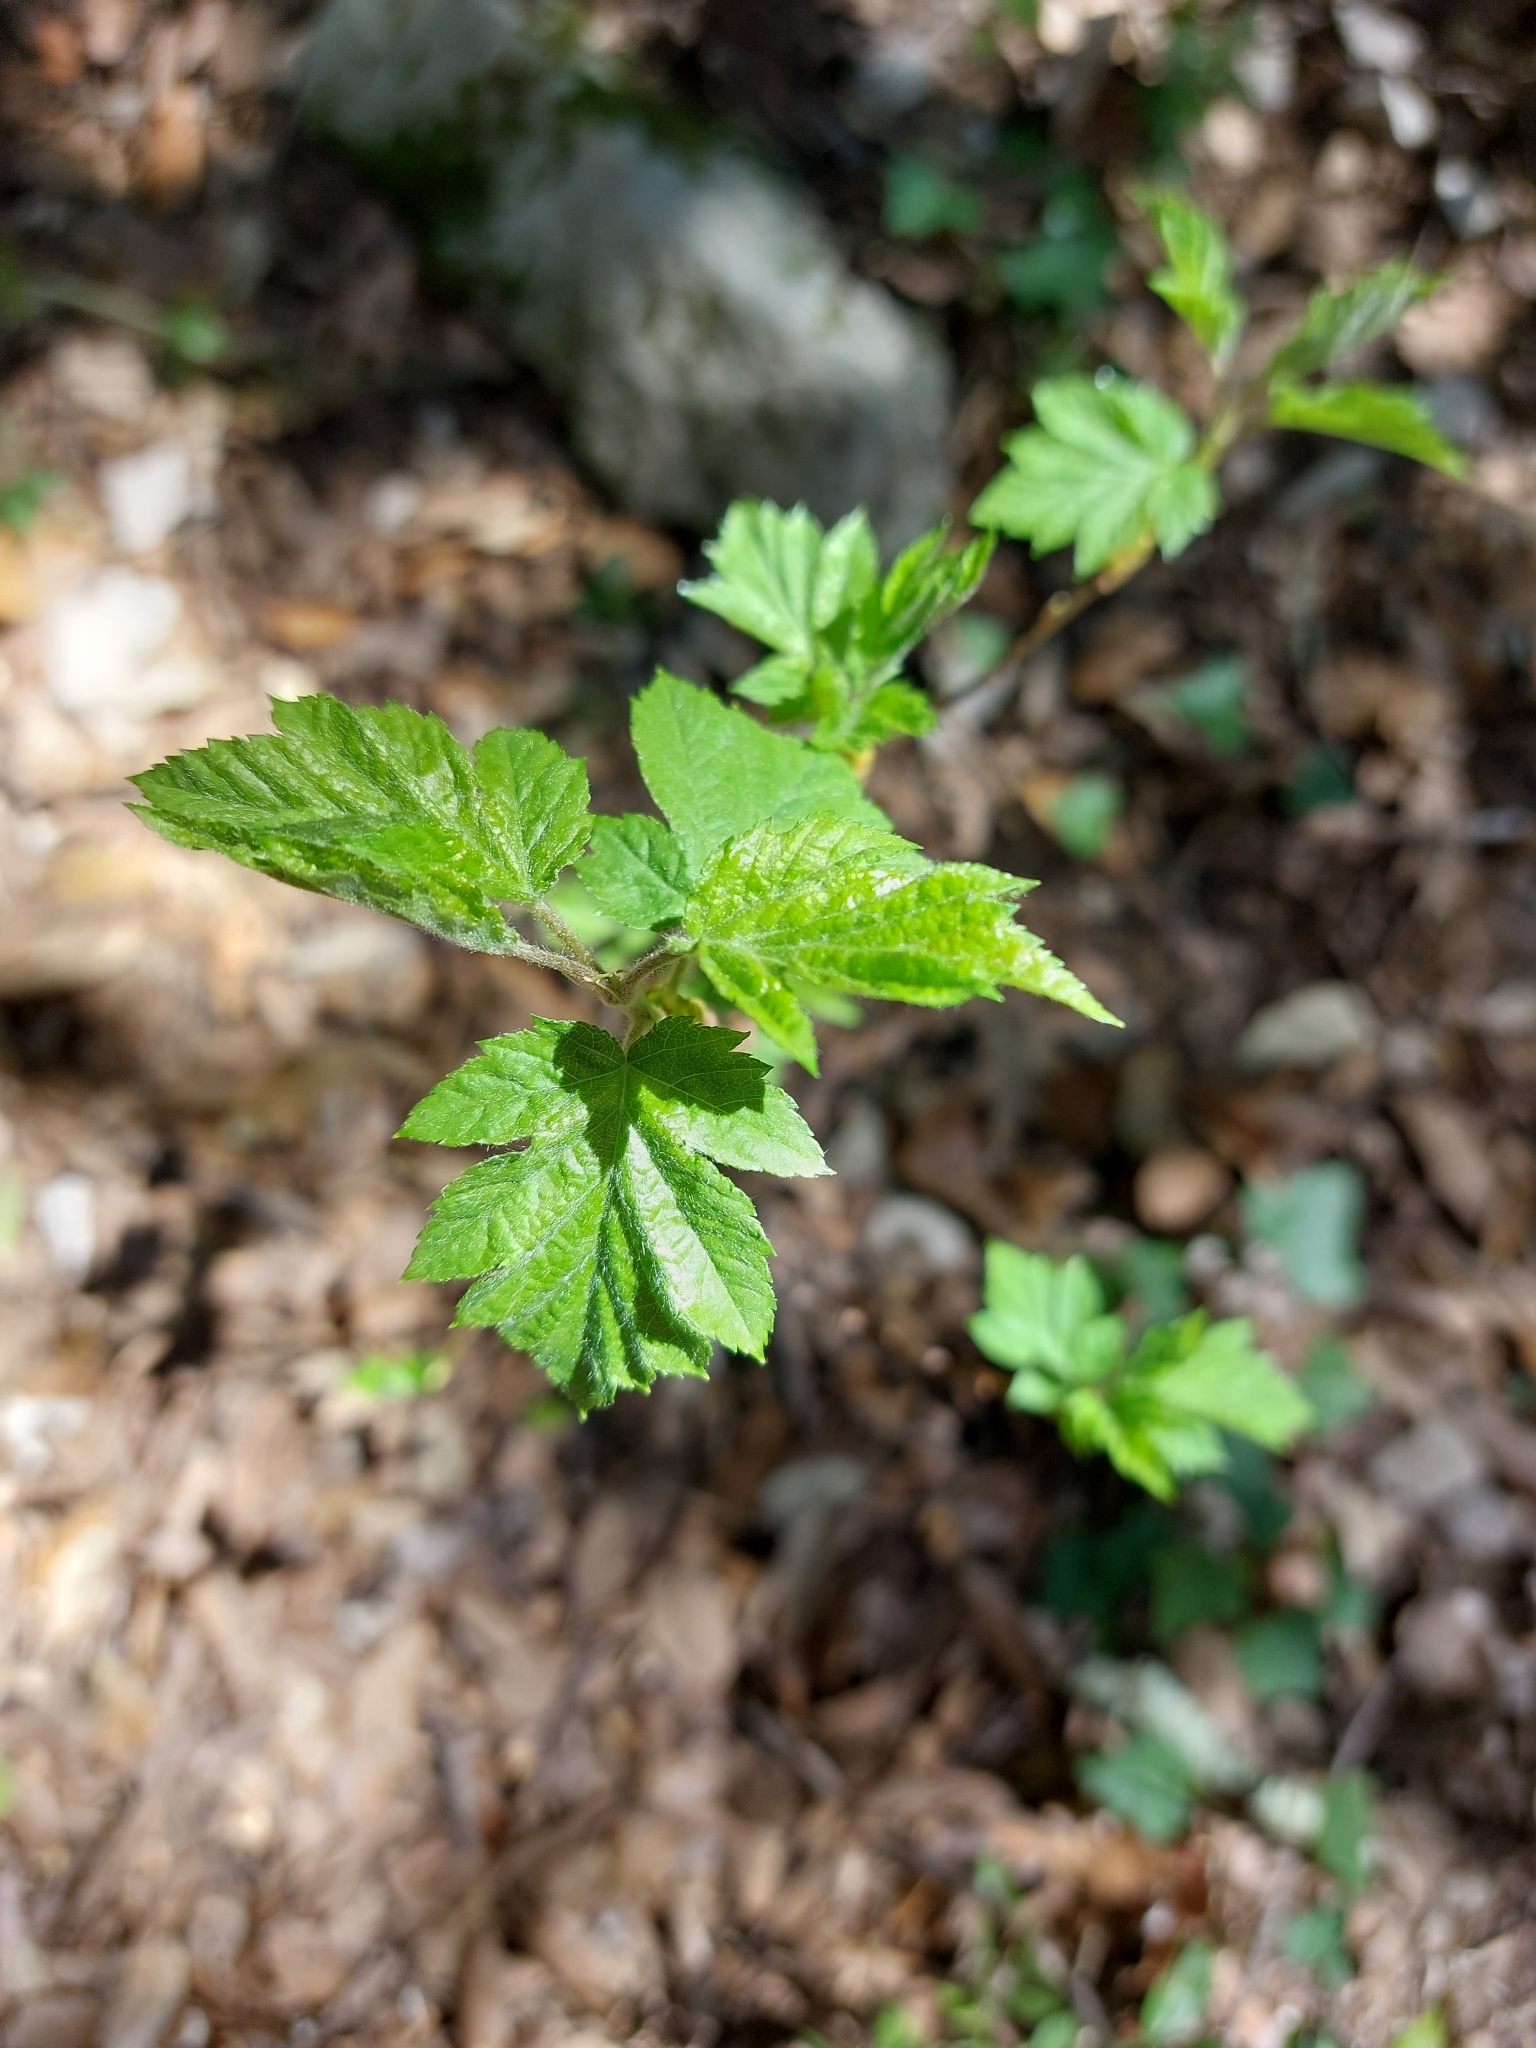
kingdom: Plantae
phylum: Tracheophyta
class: Magnoliopsida
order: Rosales
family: Rosaceae
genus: Torminalis
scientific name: Torminalis glaberrima
